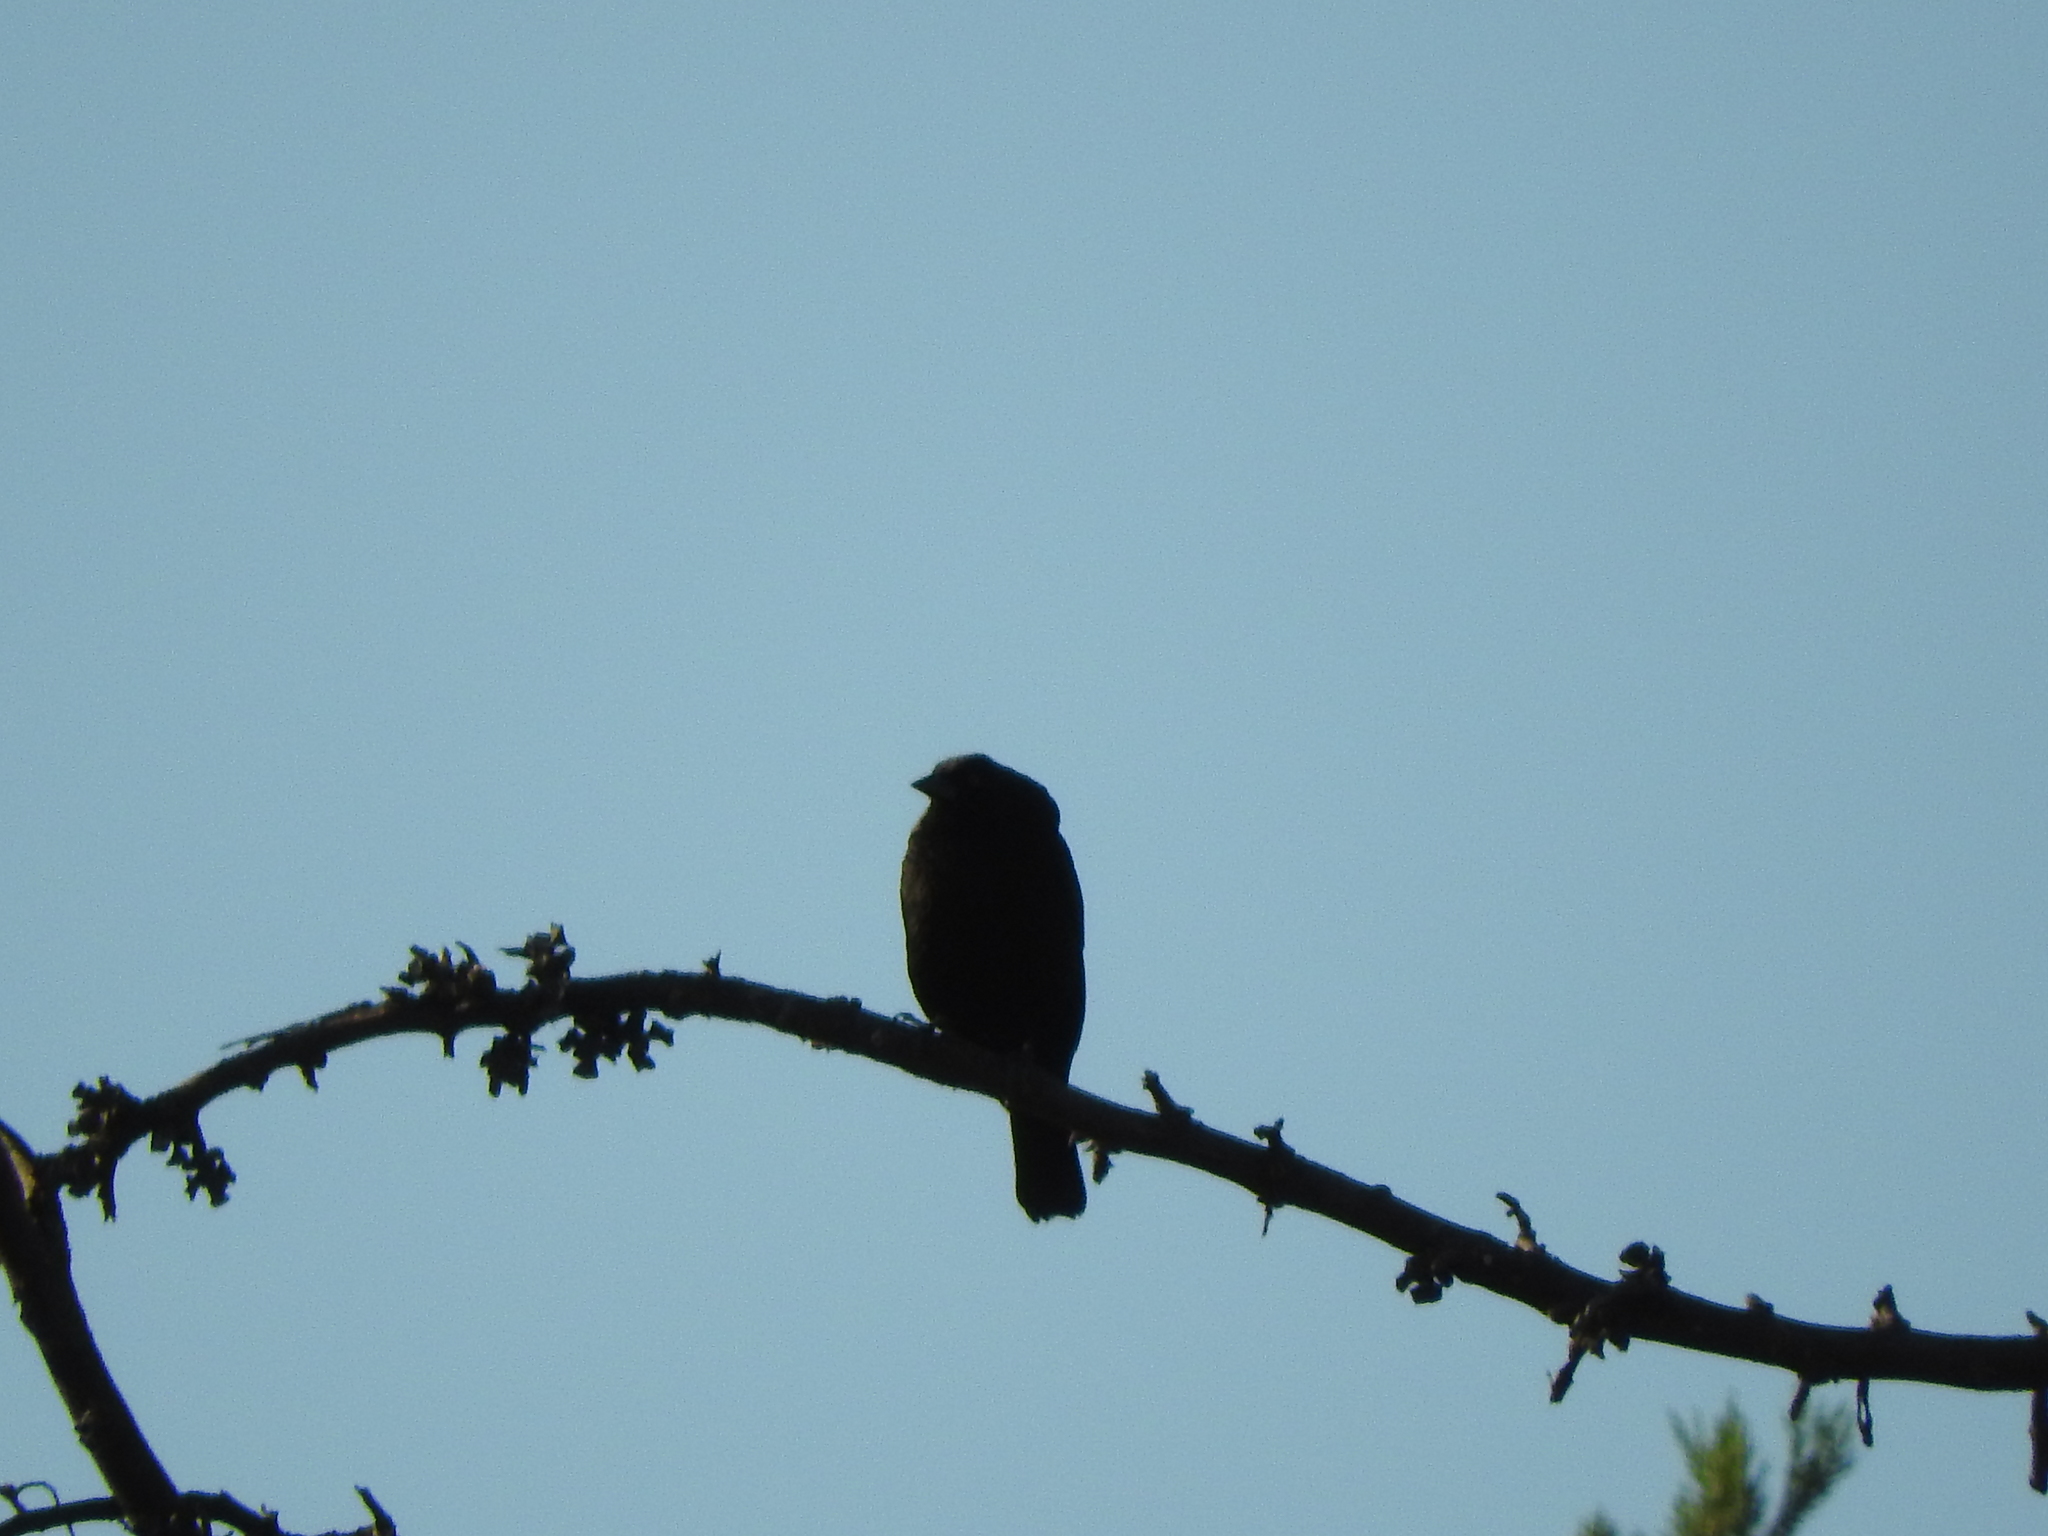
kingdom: Animalia
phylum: Chordata
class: Aves
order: Passeriformes
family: Icteridae
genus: Molothrus
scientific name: Molothrus aeneus
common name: Bronzed cowbird
